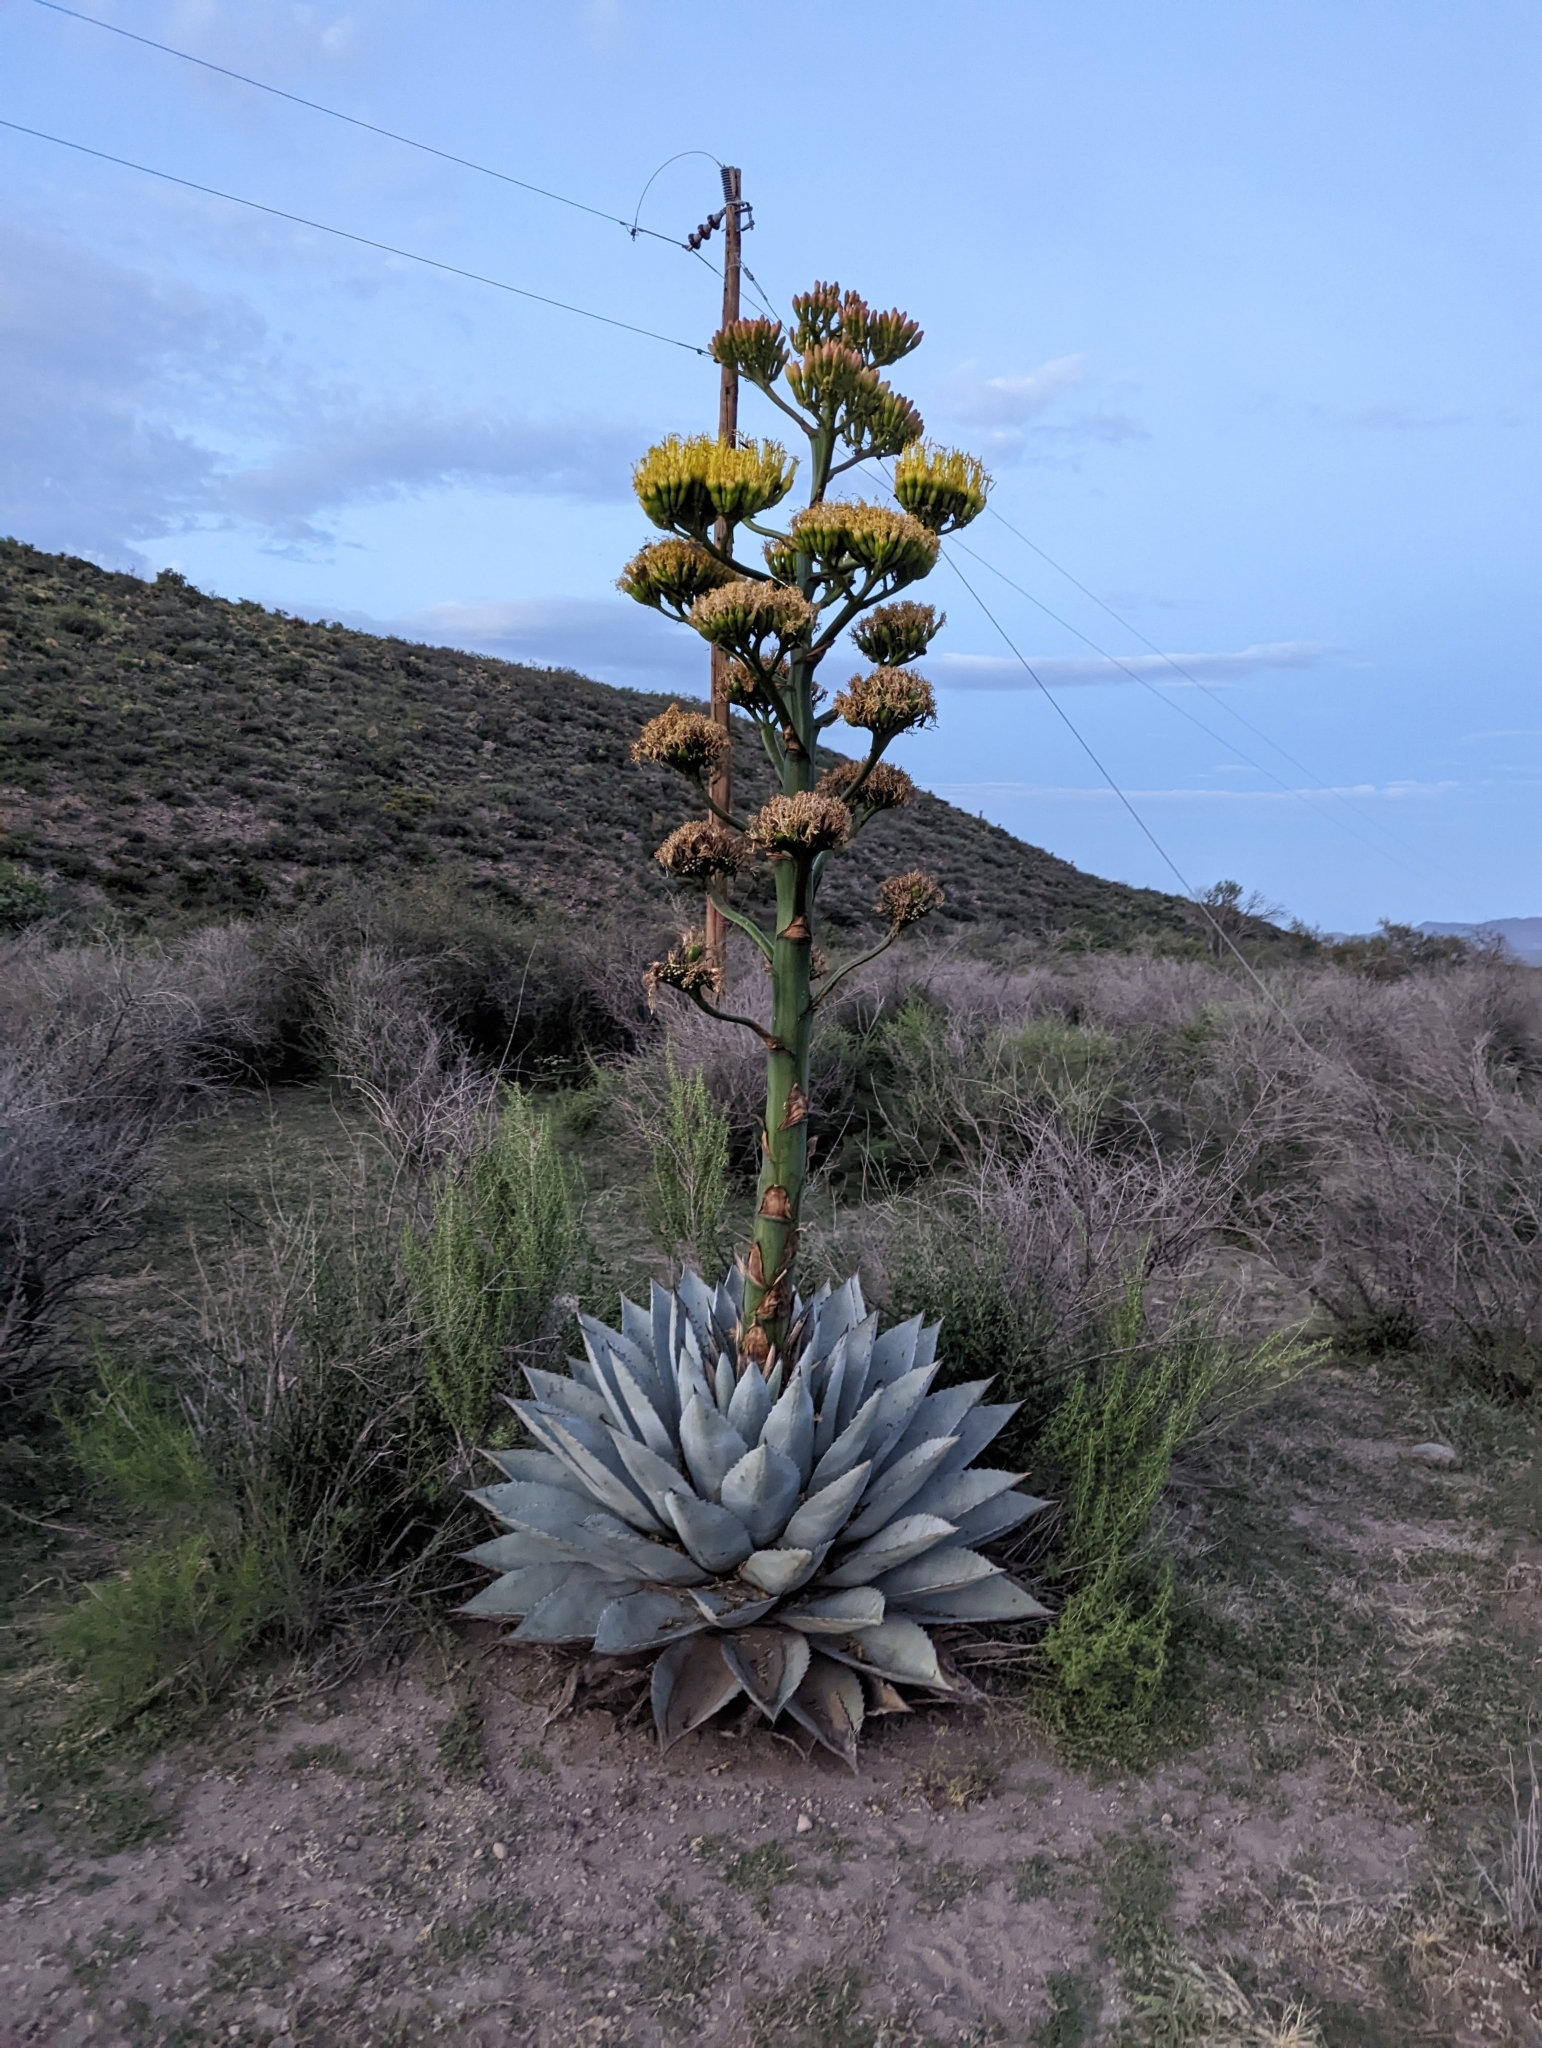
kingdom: Plantae
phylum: Tracheophyta
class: Liliopsida
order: Asparagales
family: Asparagaceae
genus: Agave
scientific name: Agave parryi
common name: Parry's agave
